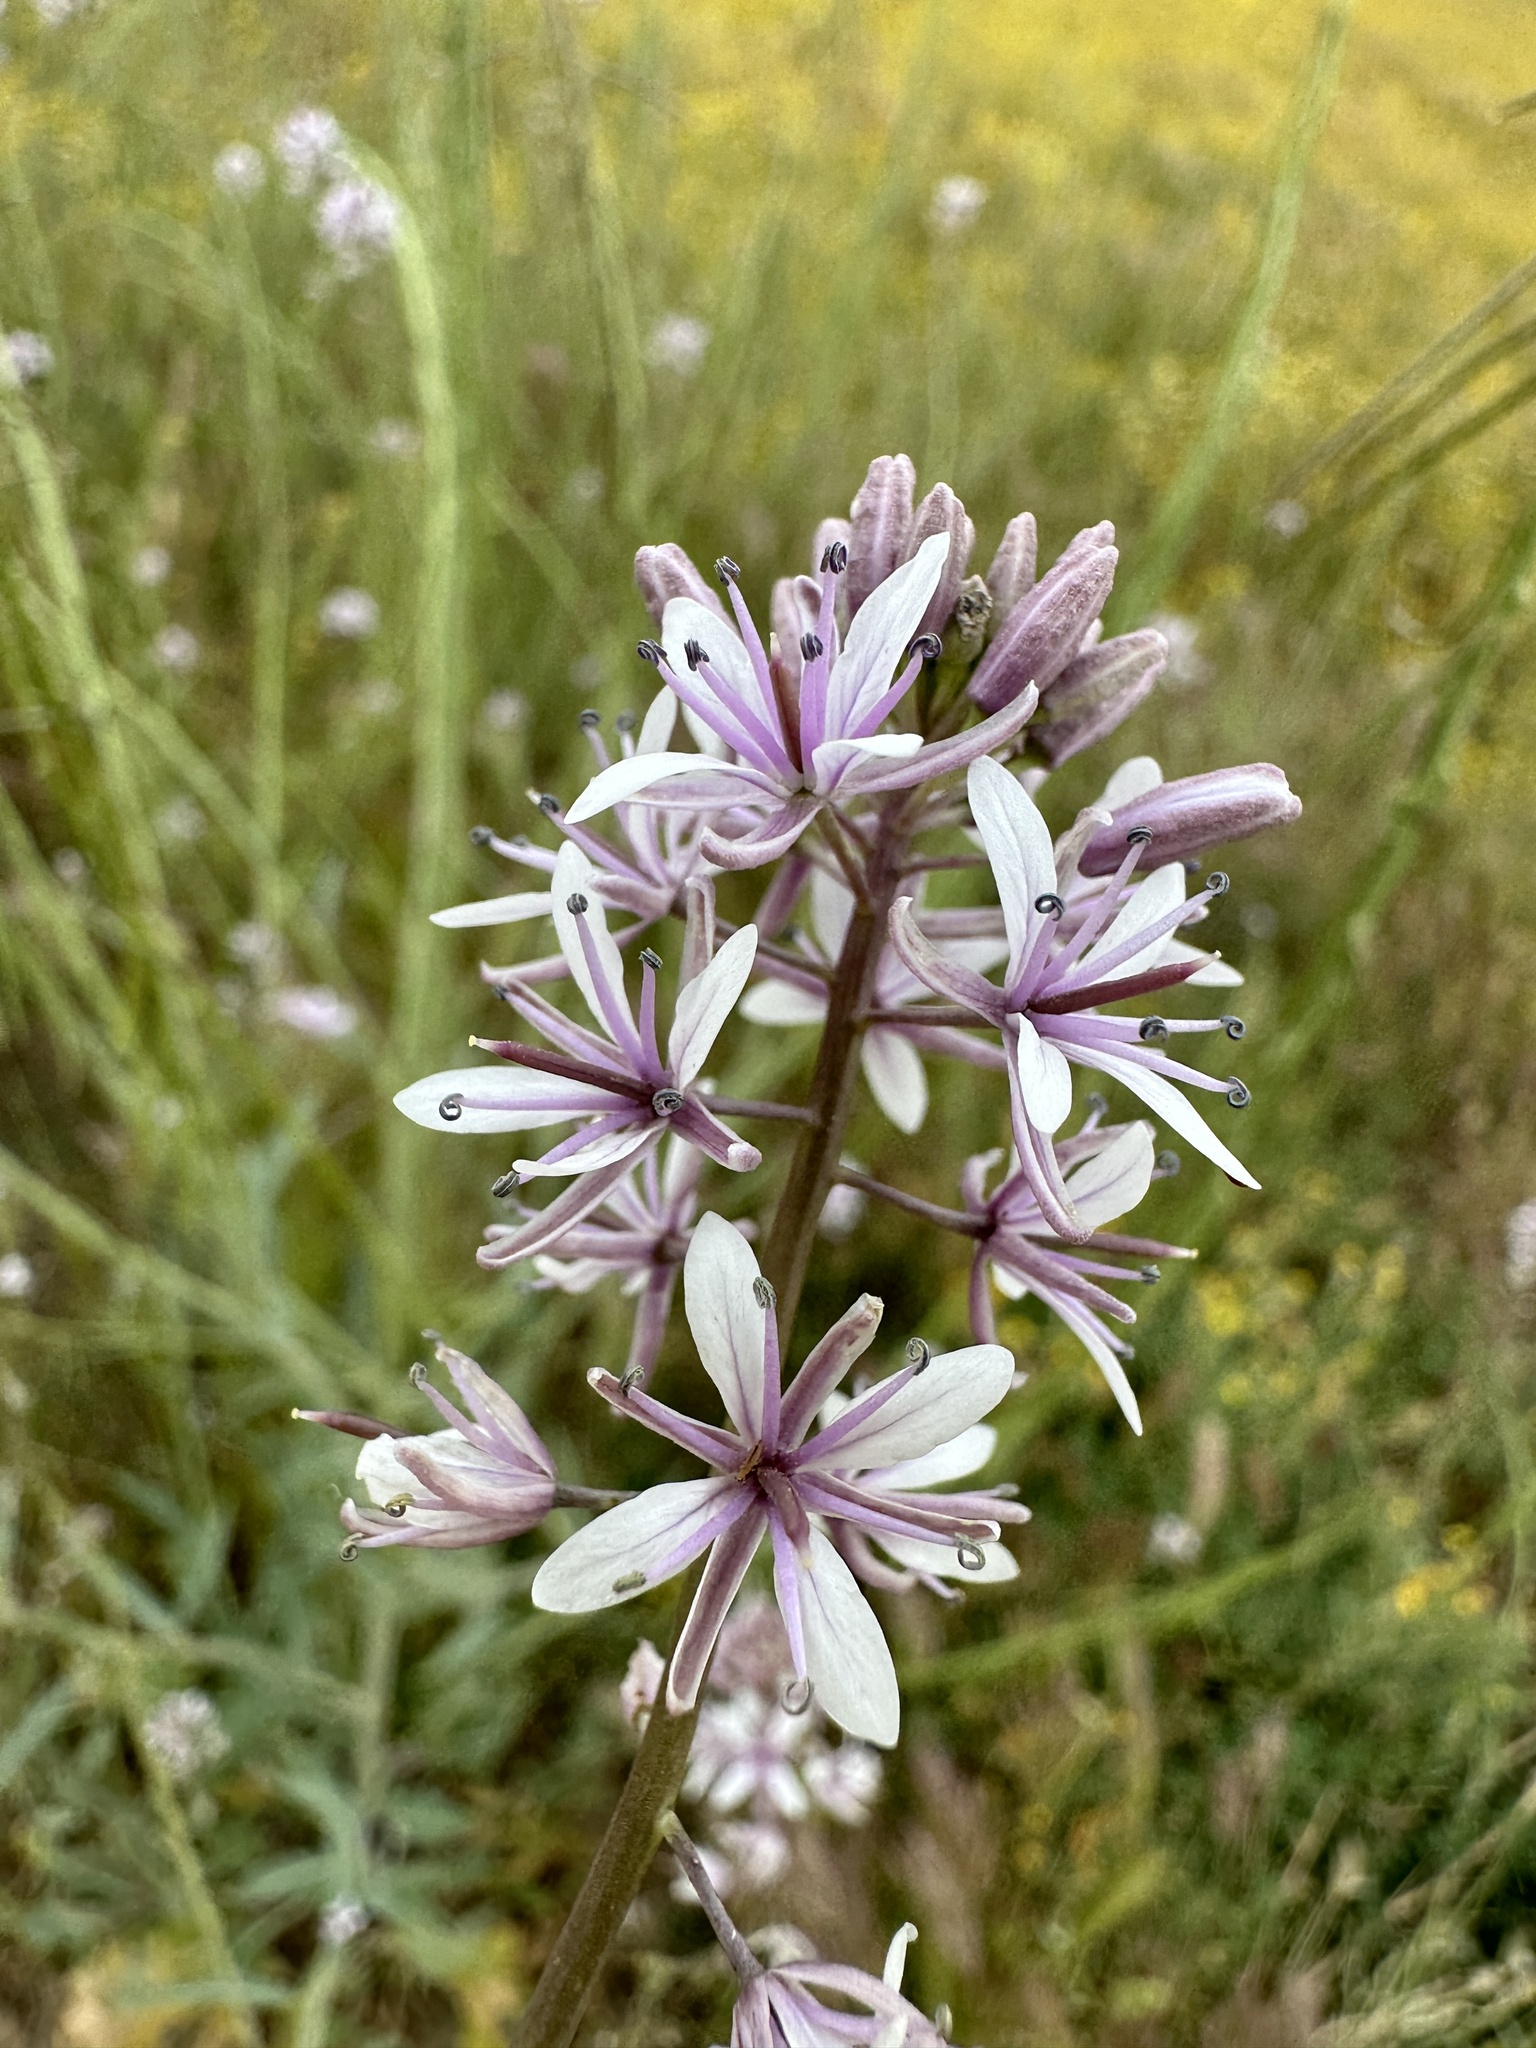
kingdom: Plantae
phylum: Tracheophyta
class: Magnoliopsida
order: Brassicales
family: Brassicaceae
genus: Streptanthus
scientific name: Streptanthus anceps
